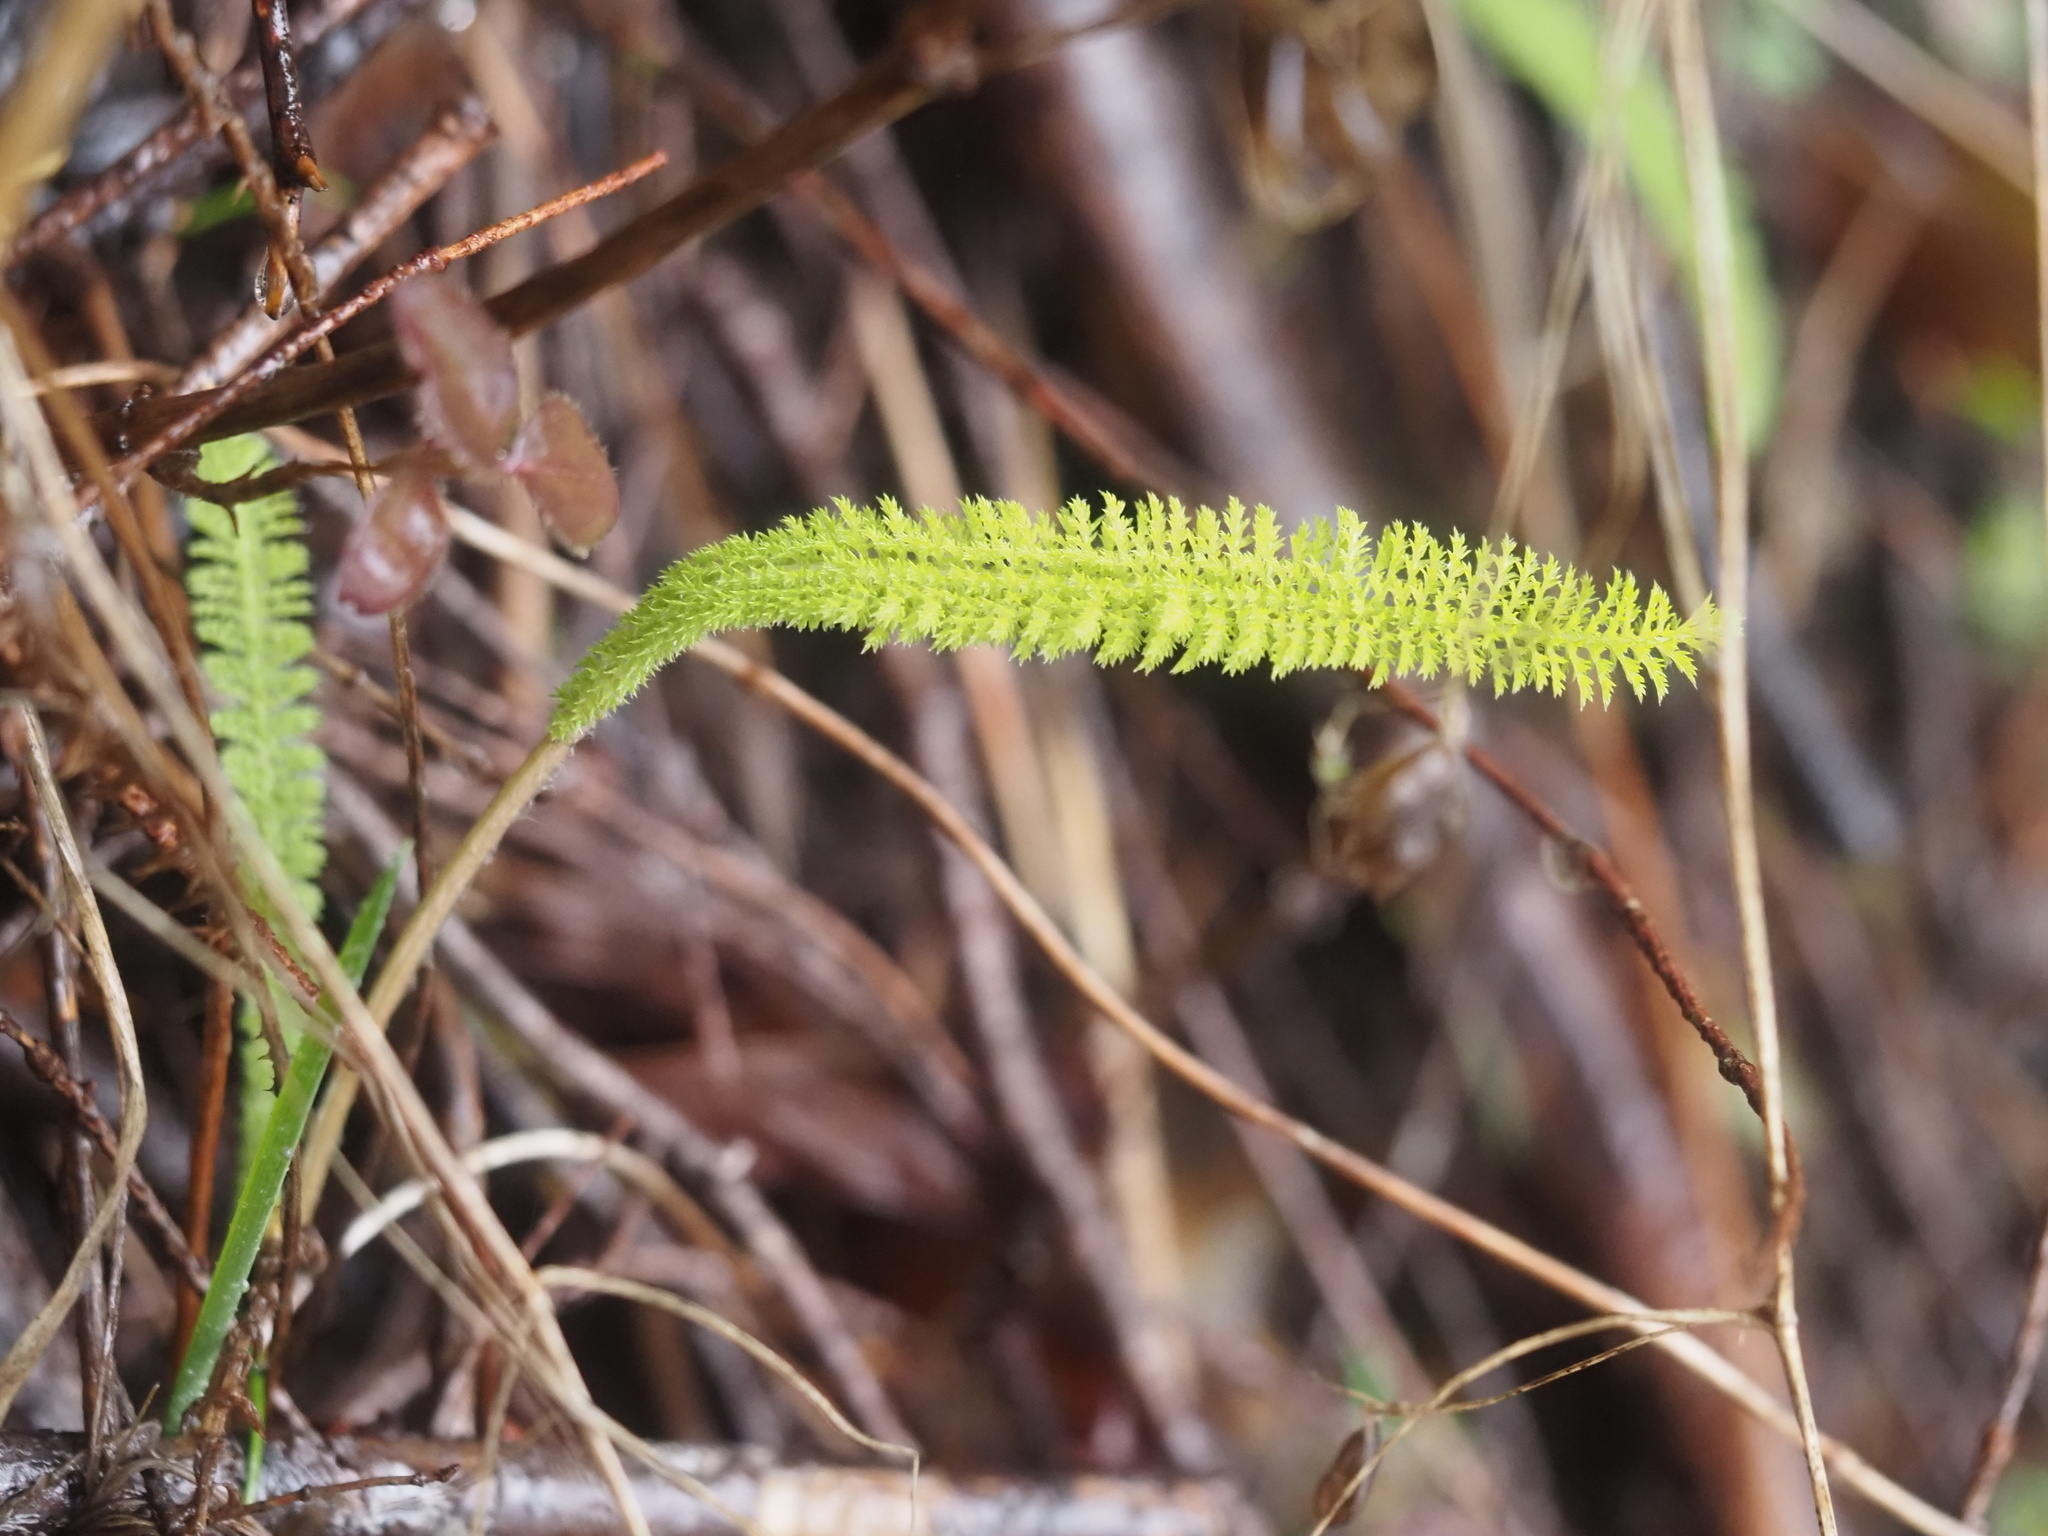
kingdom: Plantae
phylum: Tracheophyta
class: Magnoliopsida
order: Asterales
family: Asteraceae
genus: Achillea
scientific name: Achillea millefolium
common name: Yarrow
